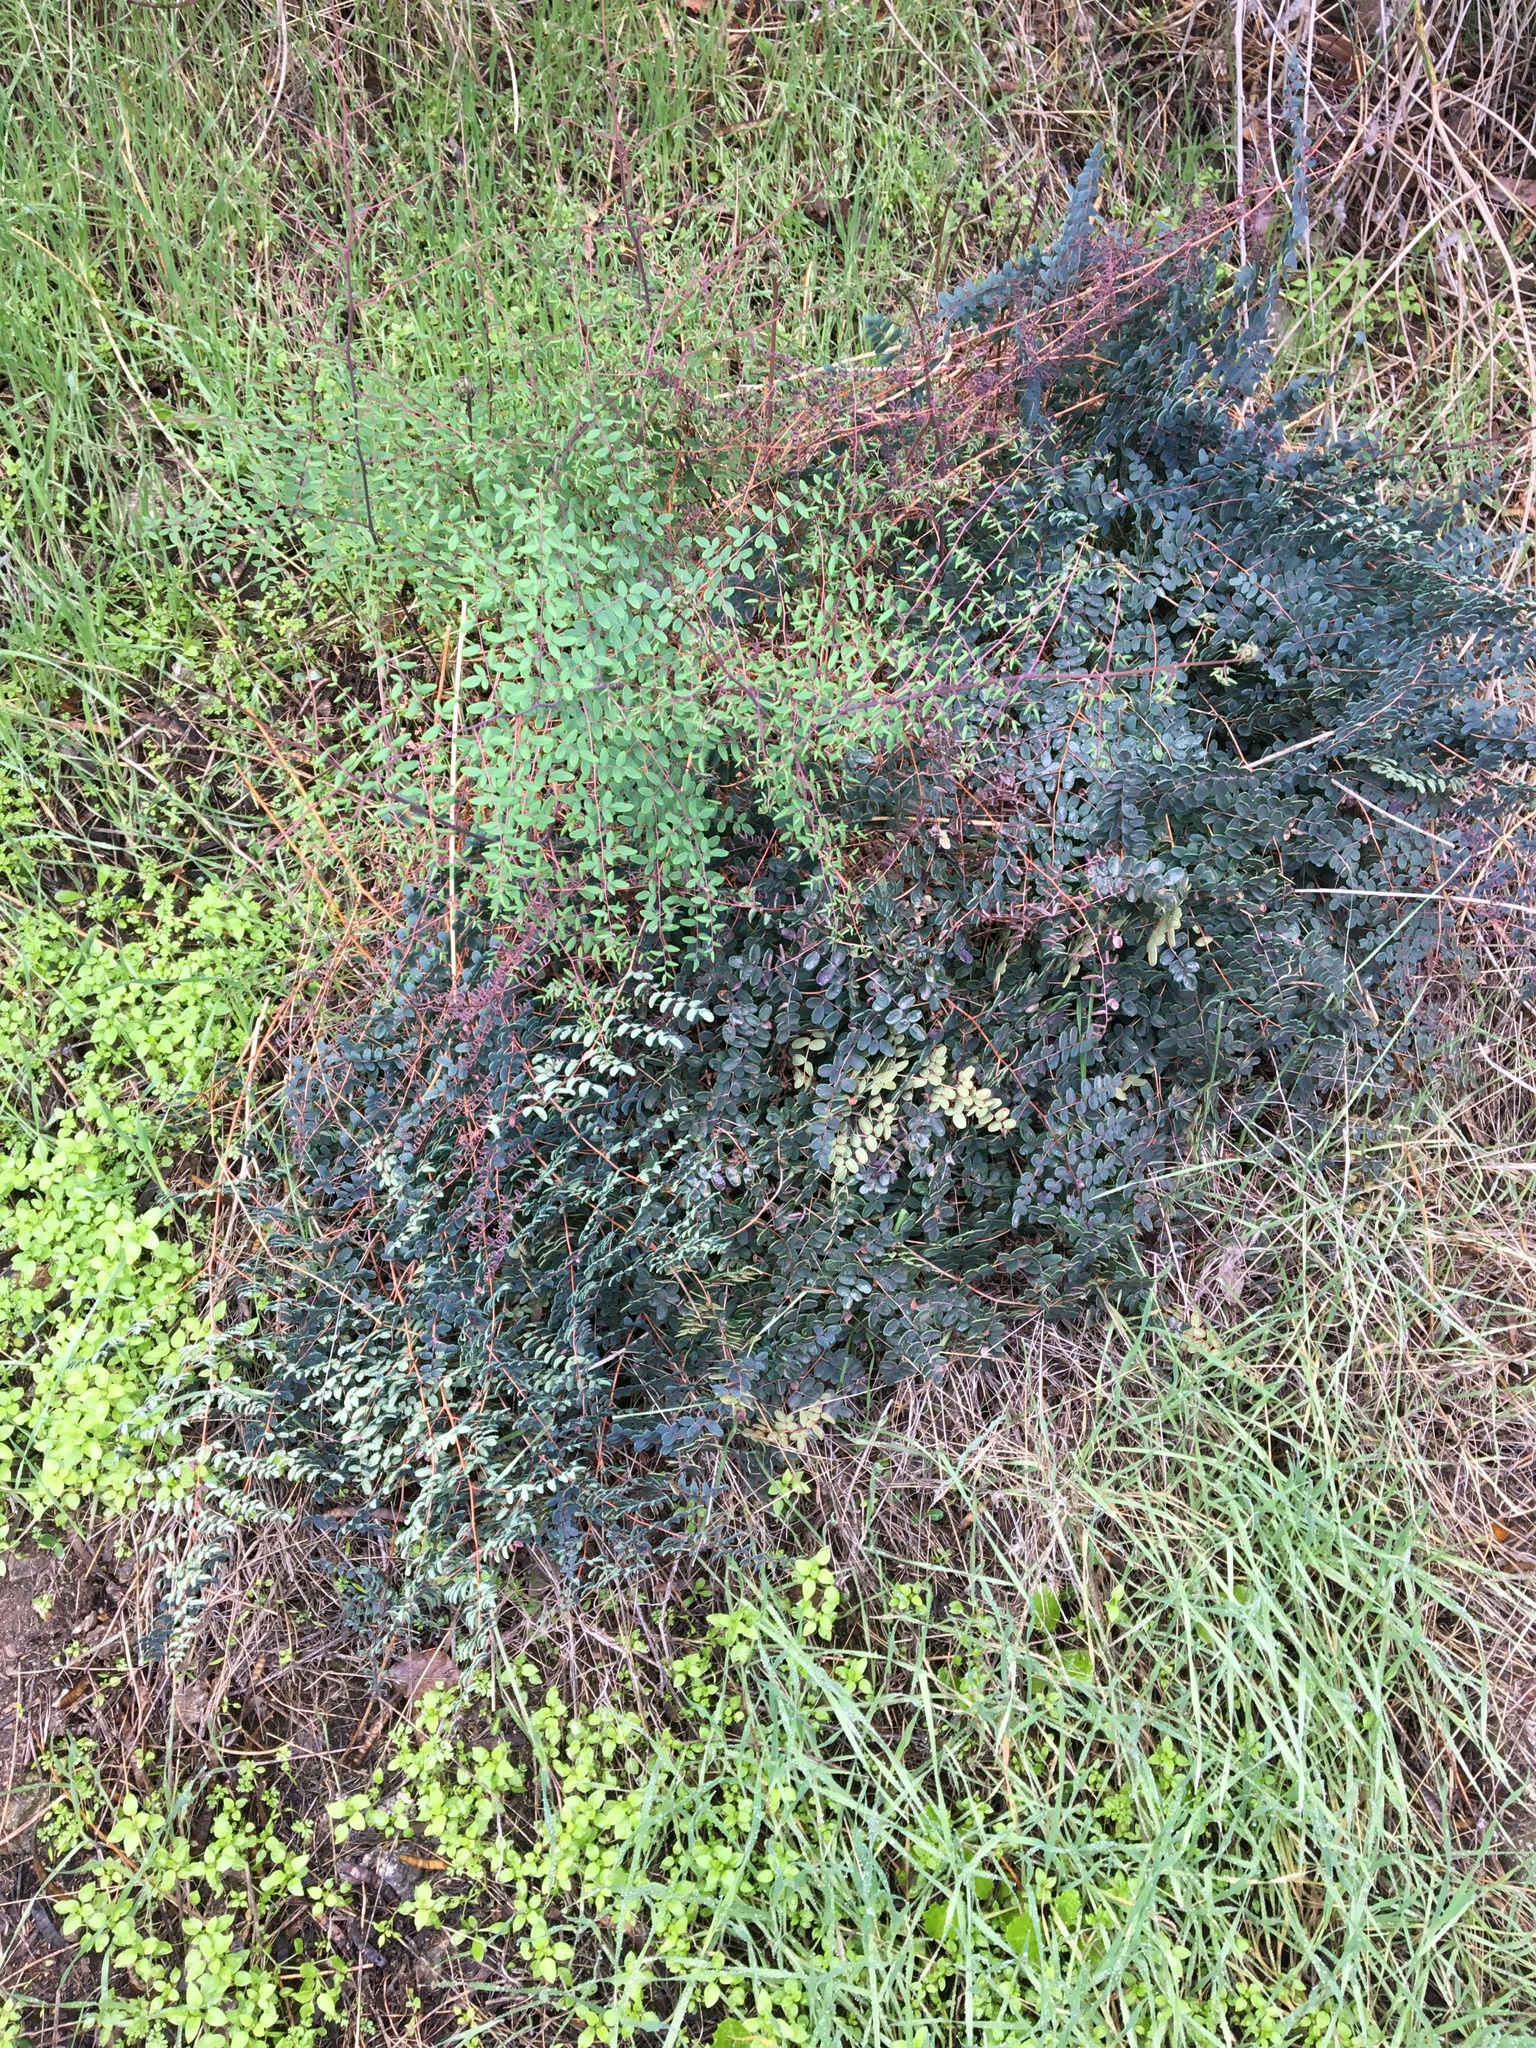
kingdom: Plantae
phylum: Tracheophyta
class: Polypodiopsida
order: Polypodiales
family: Pteridaceae
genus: Pellaea
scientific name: Pellaea andromedifolia
